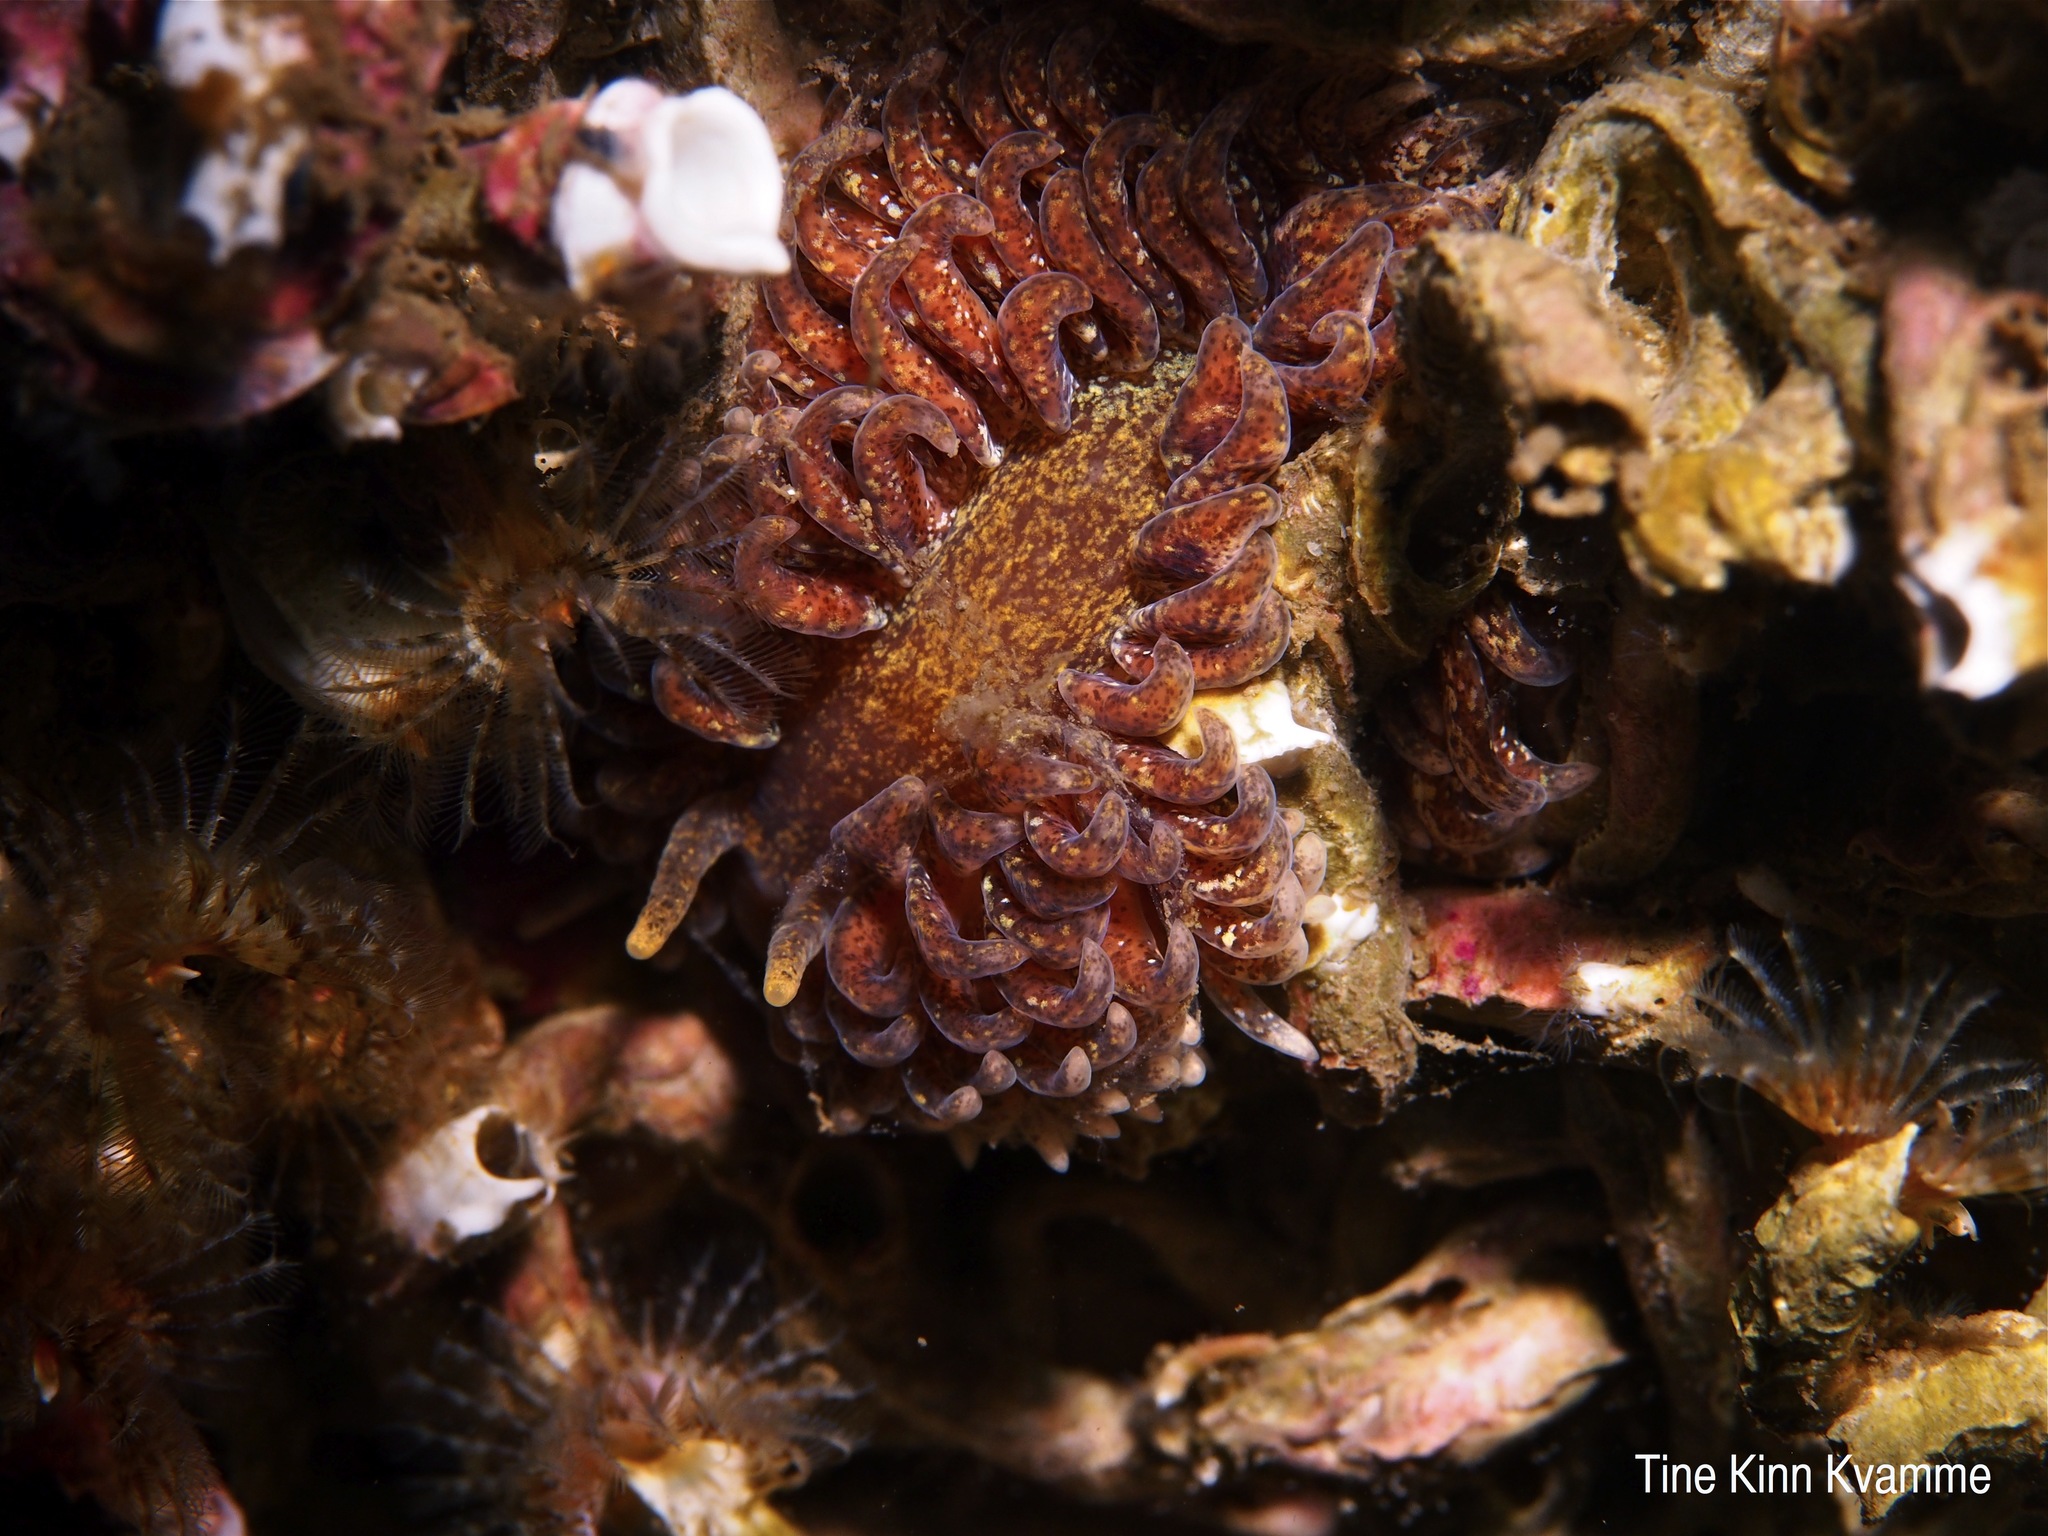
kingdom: Animalia
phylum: Mollusca
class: Gastropoda
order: Nudibranchia
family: Aeolidiidae
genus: Aeolidia
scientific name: Aeolidia papillosa
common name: Common grey sea slug
